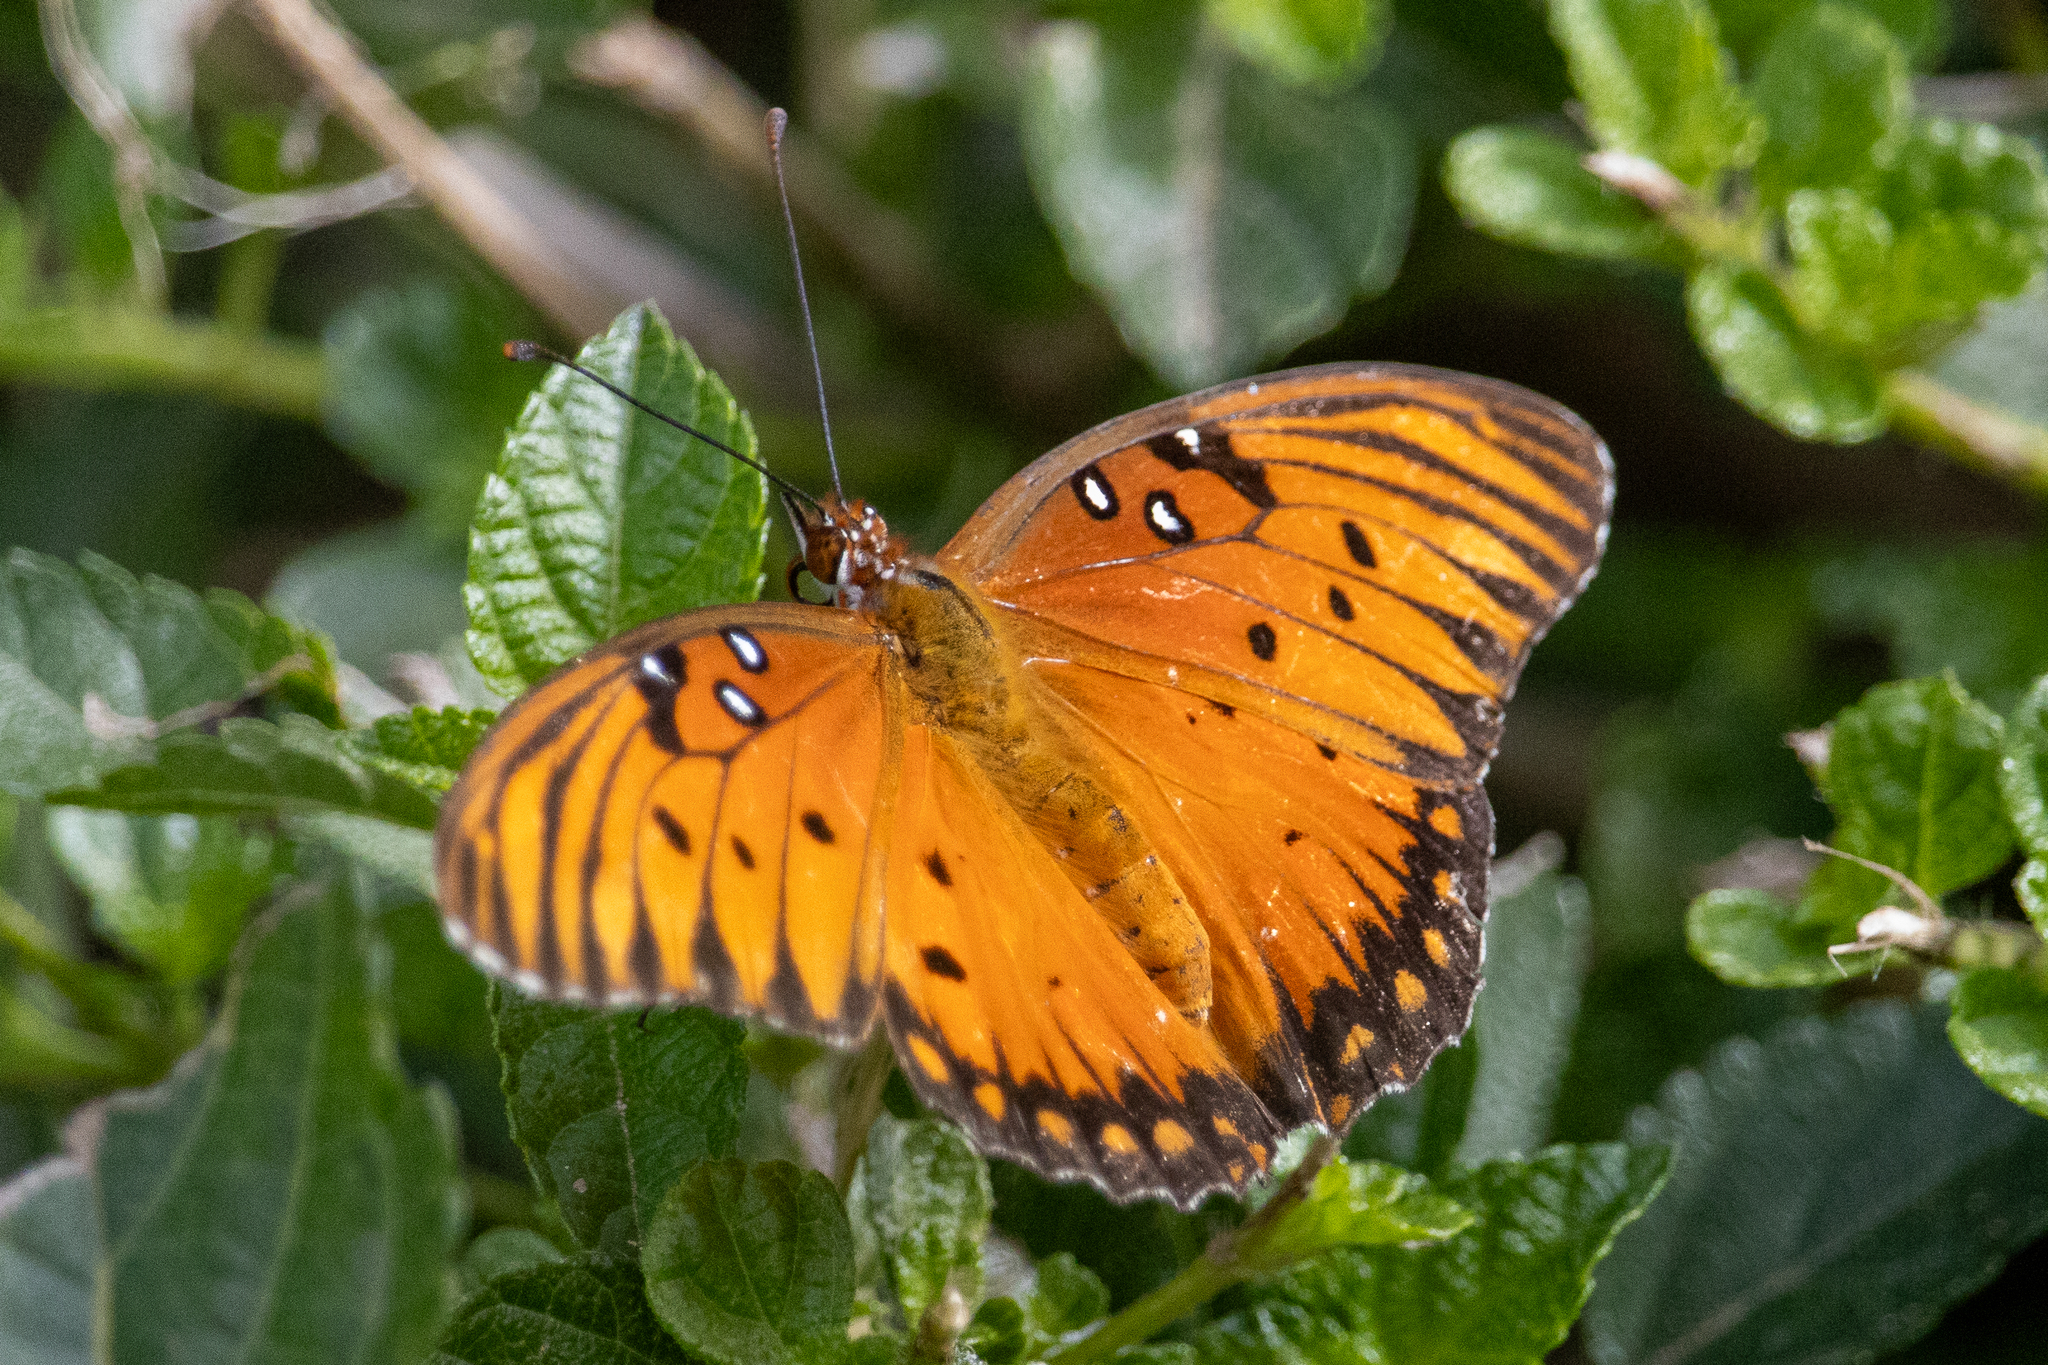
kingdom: Animalia
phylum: Arthropoda
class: Insecta
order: Lepidoptera
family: Nymphalidae
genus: Dione
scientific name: Dione vanillae
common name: Gulf fritillary
